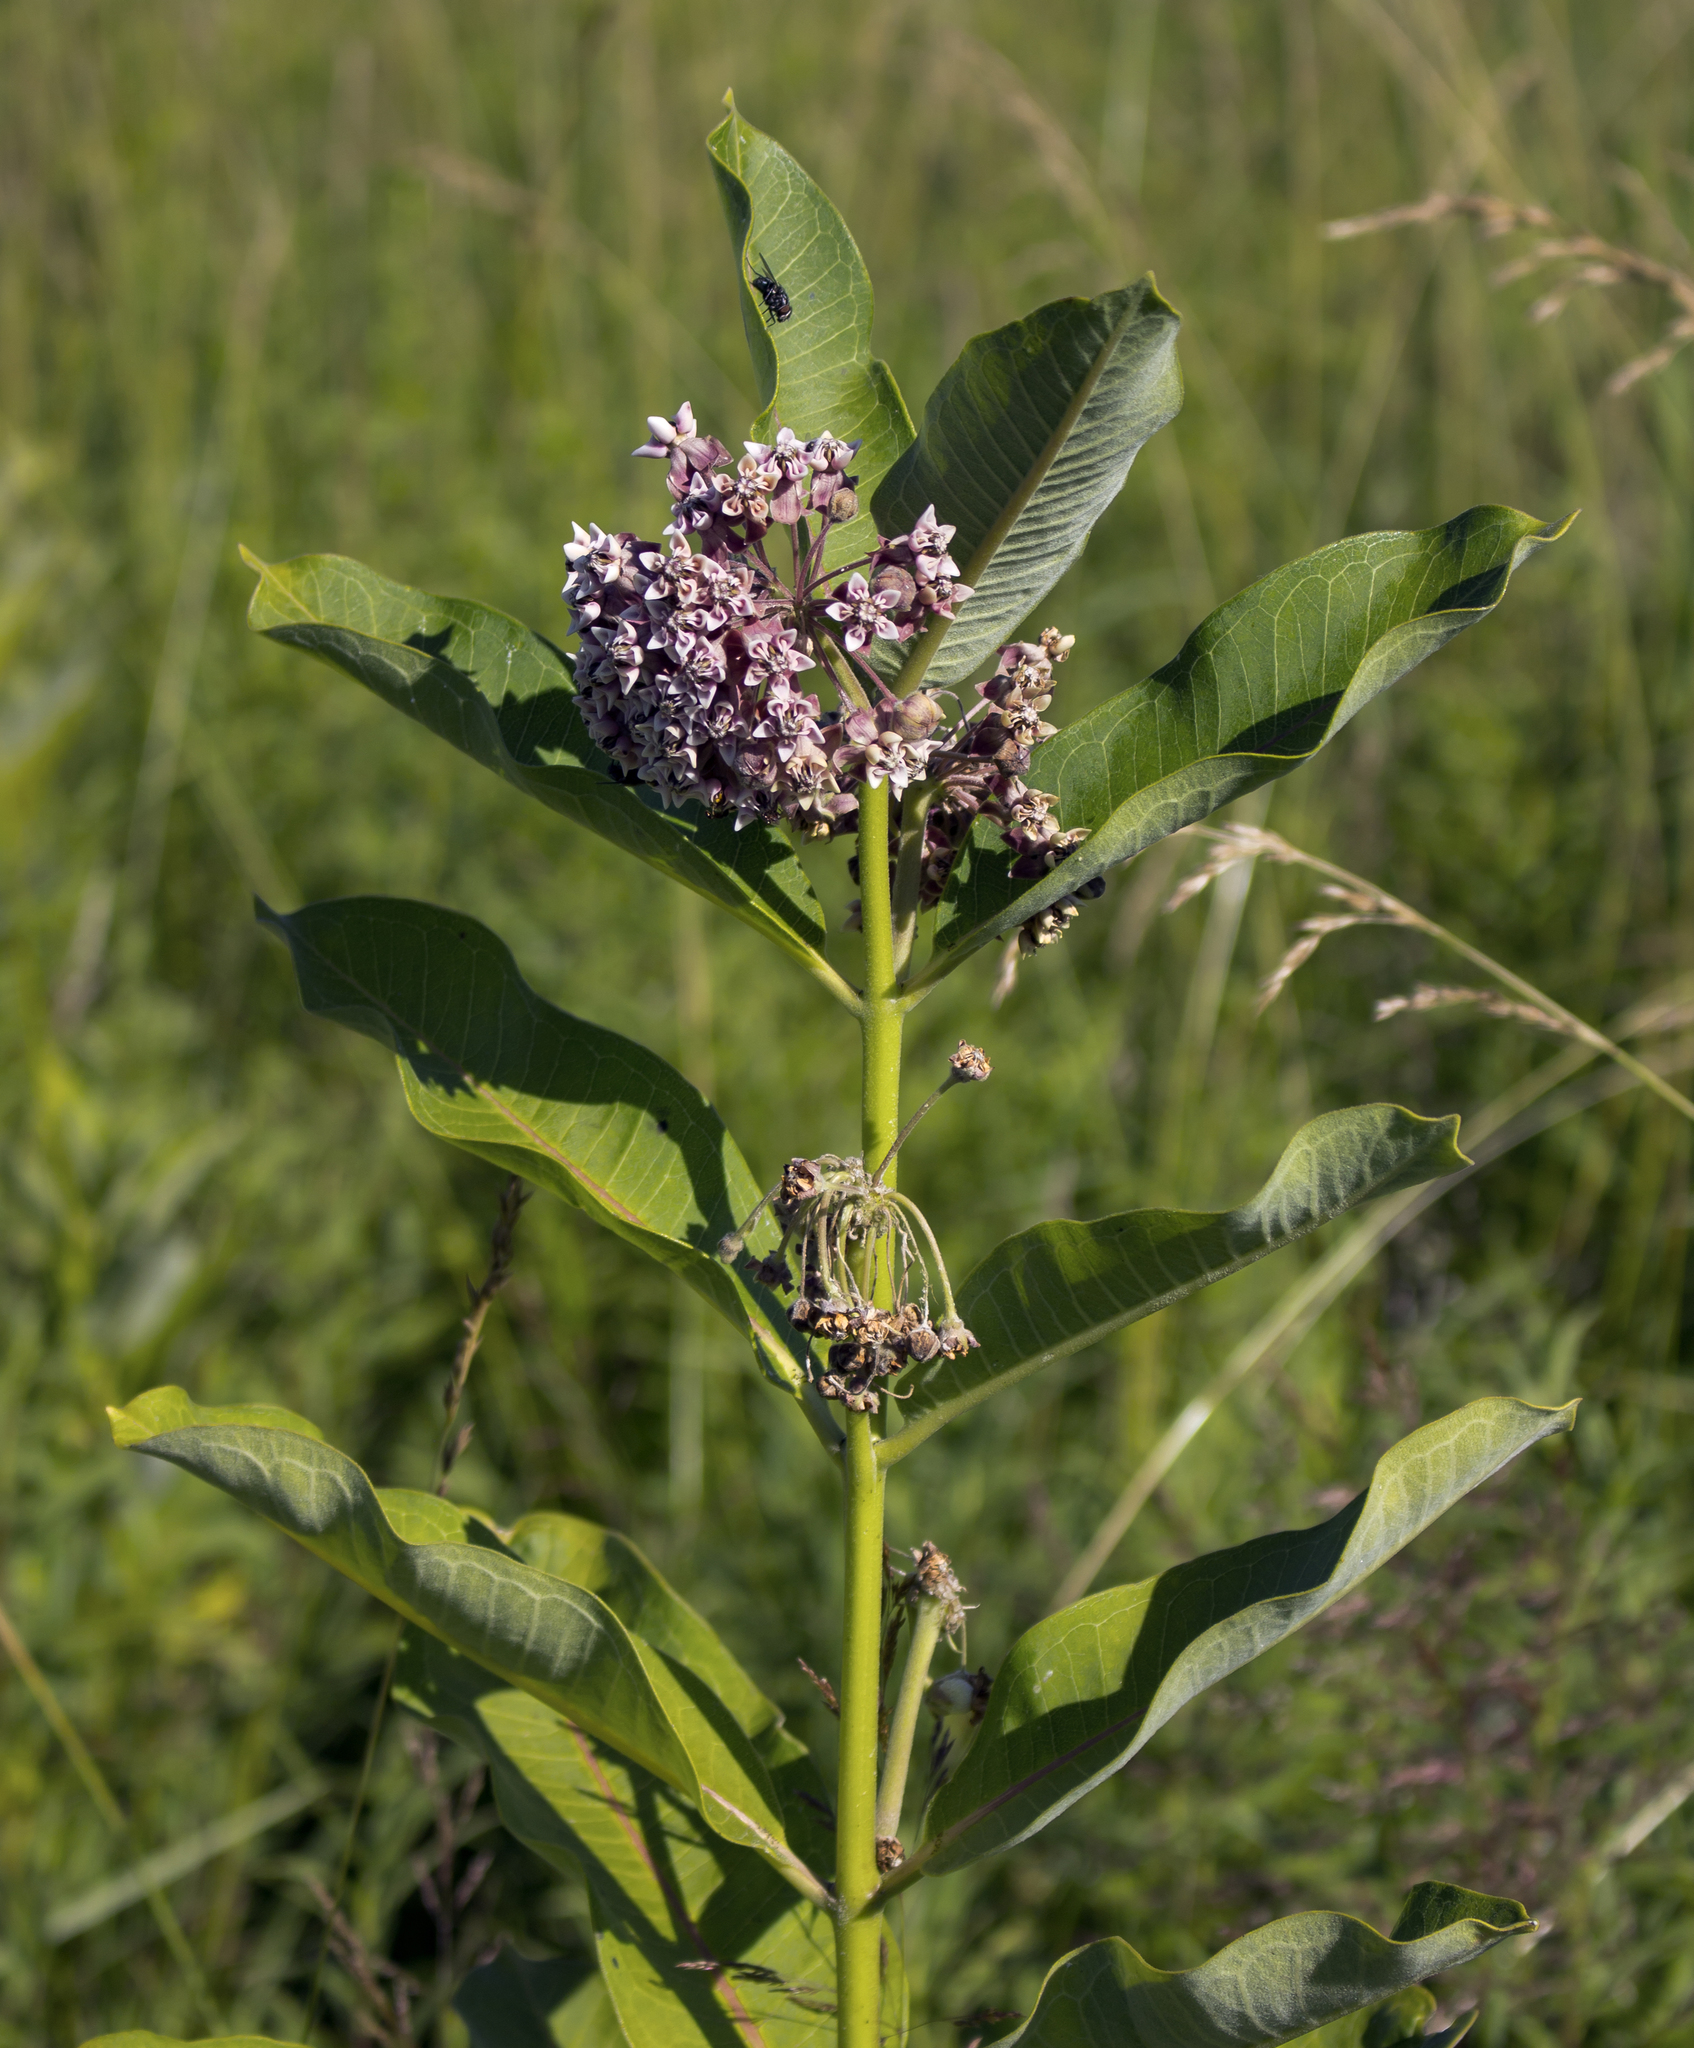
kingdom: Plantae
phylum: Tracheophyta
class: Magnoliopsida
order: Gentianales
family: Apocynaceae
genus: Asclepias
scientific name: Asclepias syriaca
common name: Common milkweed
